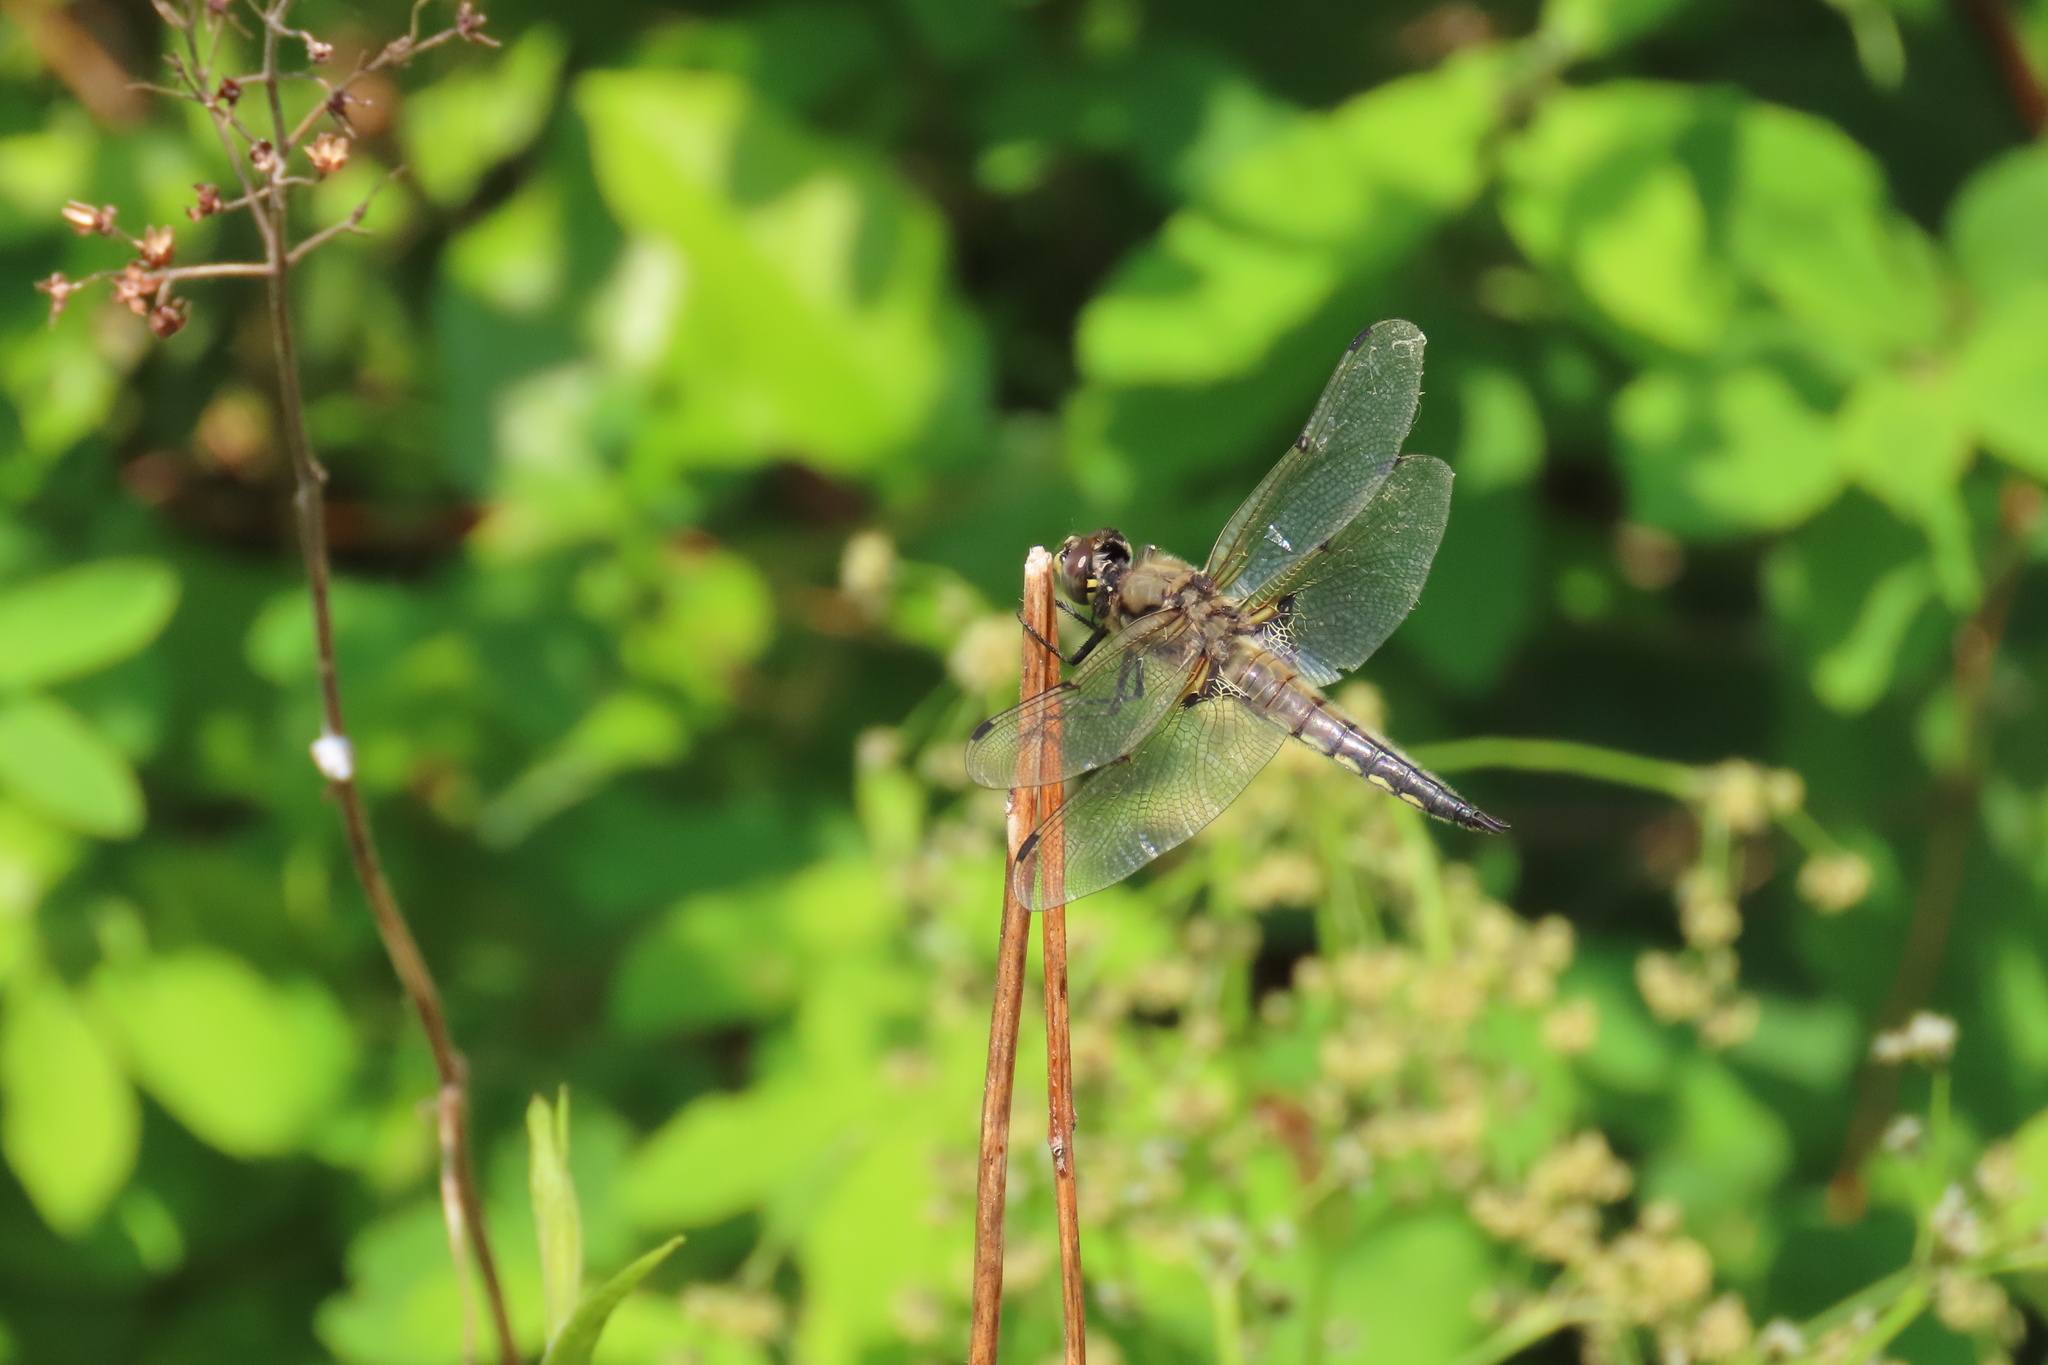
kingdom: Animalia
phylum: Arthropoda
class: Insecta
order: Odonata
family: Libellulidae
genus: Libellula
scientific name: Libellula quadrimaculata
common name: Four-spotted chaser
